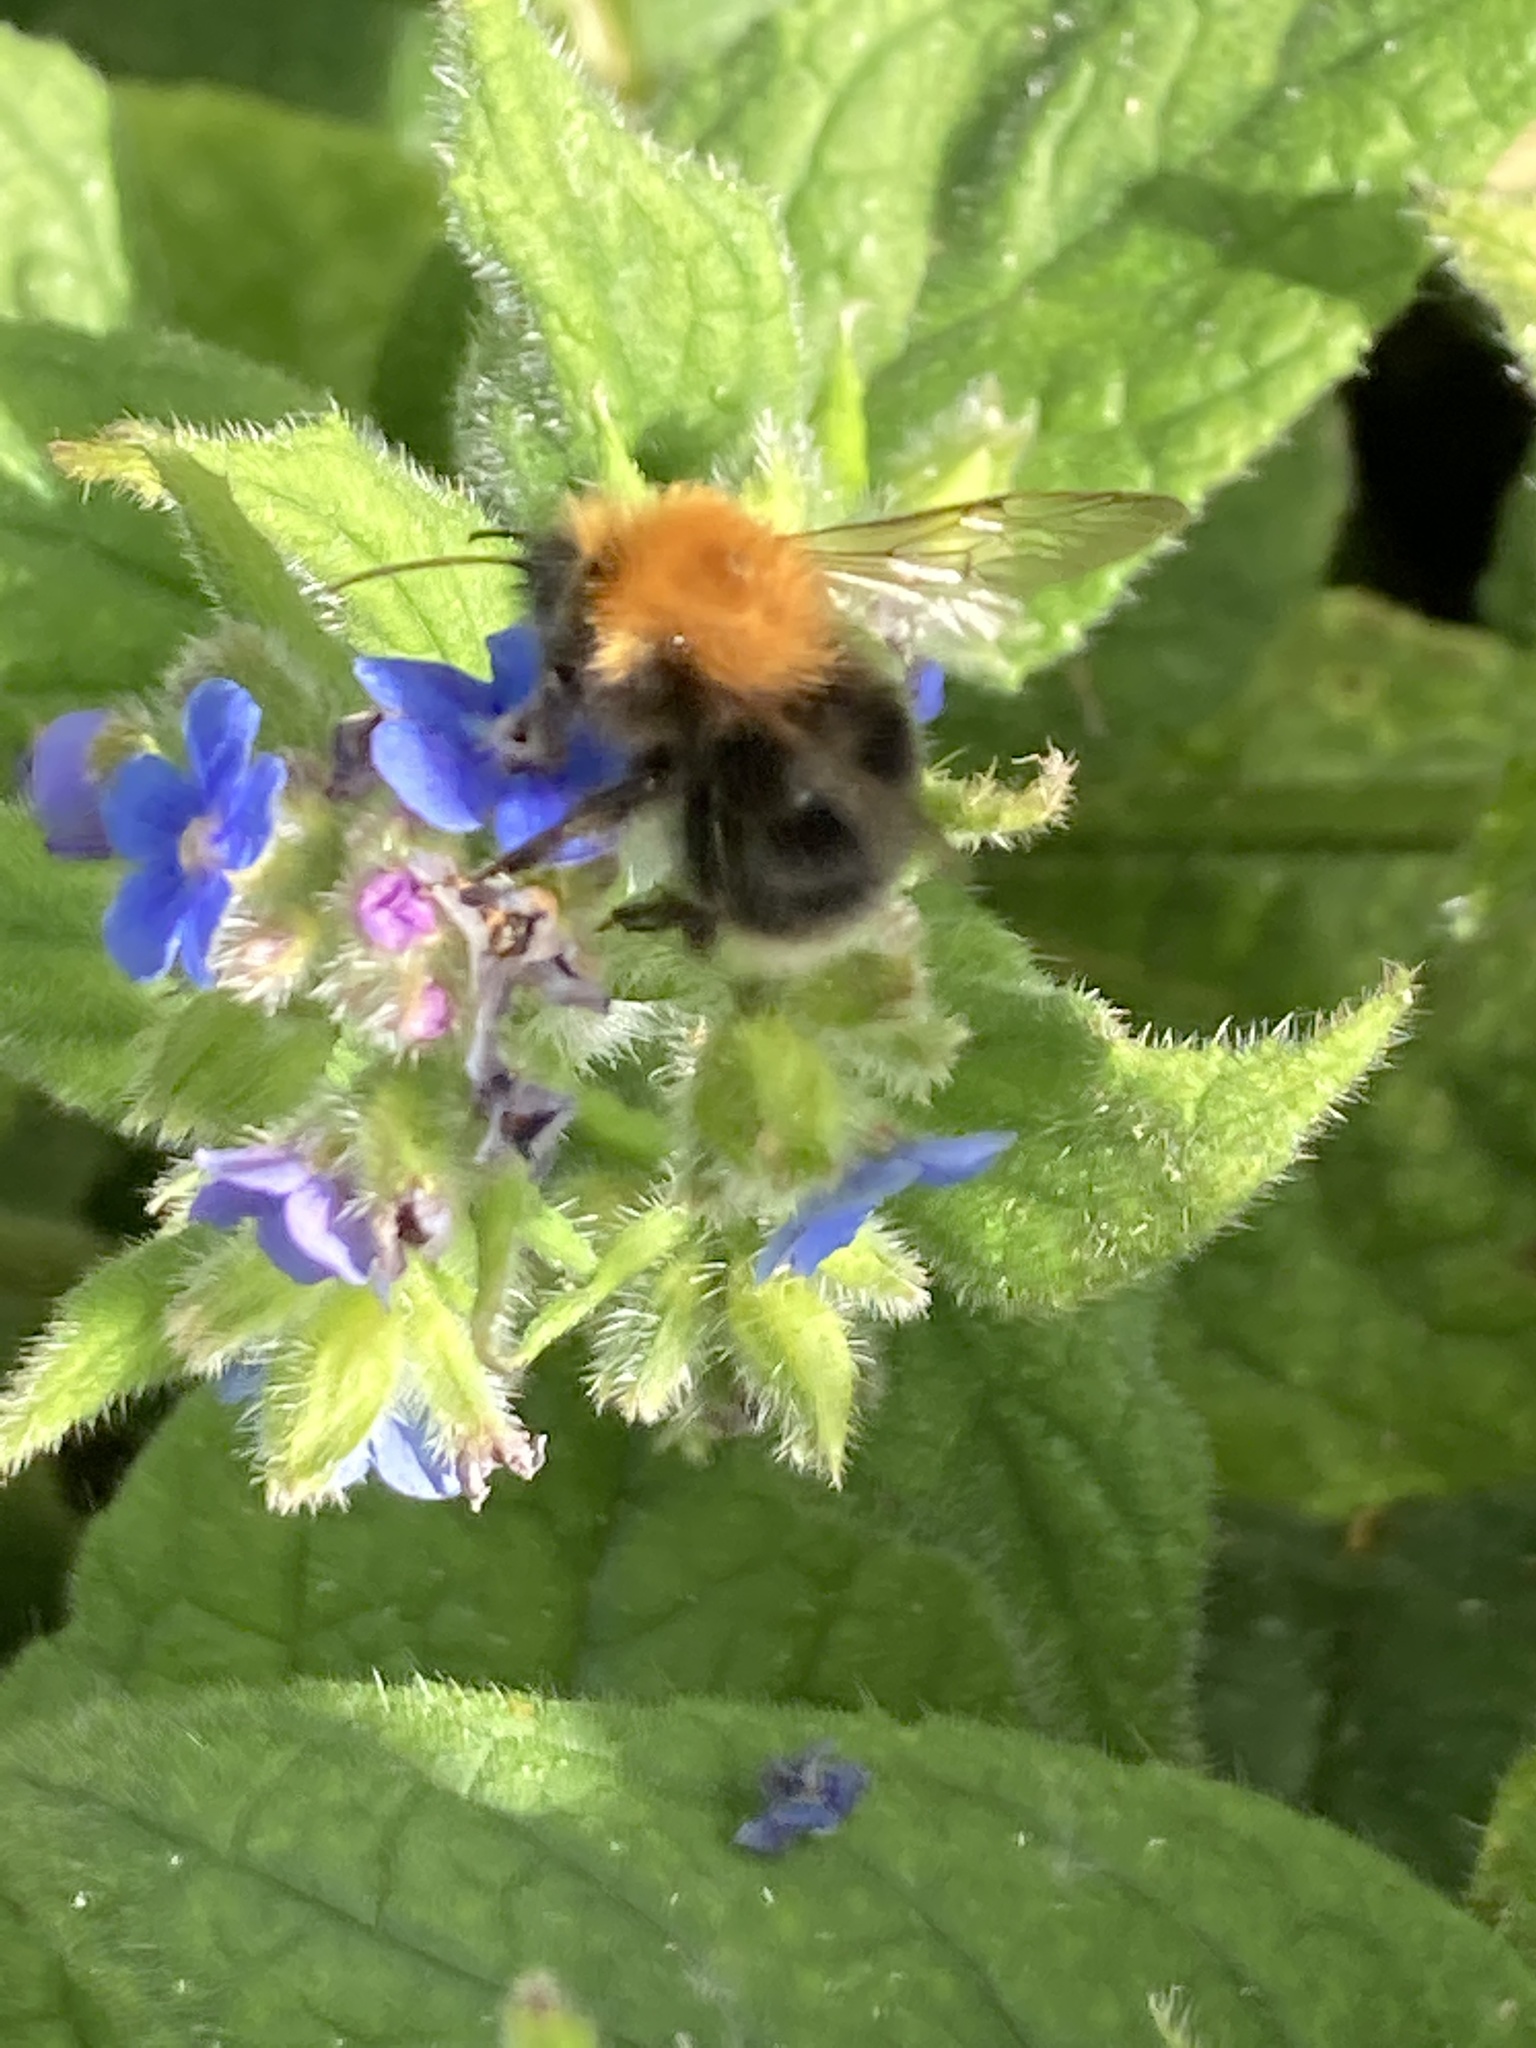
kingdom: Animalia
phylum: Arthropoda
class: Insecta
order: Hymenoptera
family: Apidae
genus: Bombus
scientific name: Bombus hypnorum
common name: New garden bumblebee
